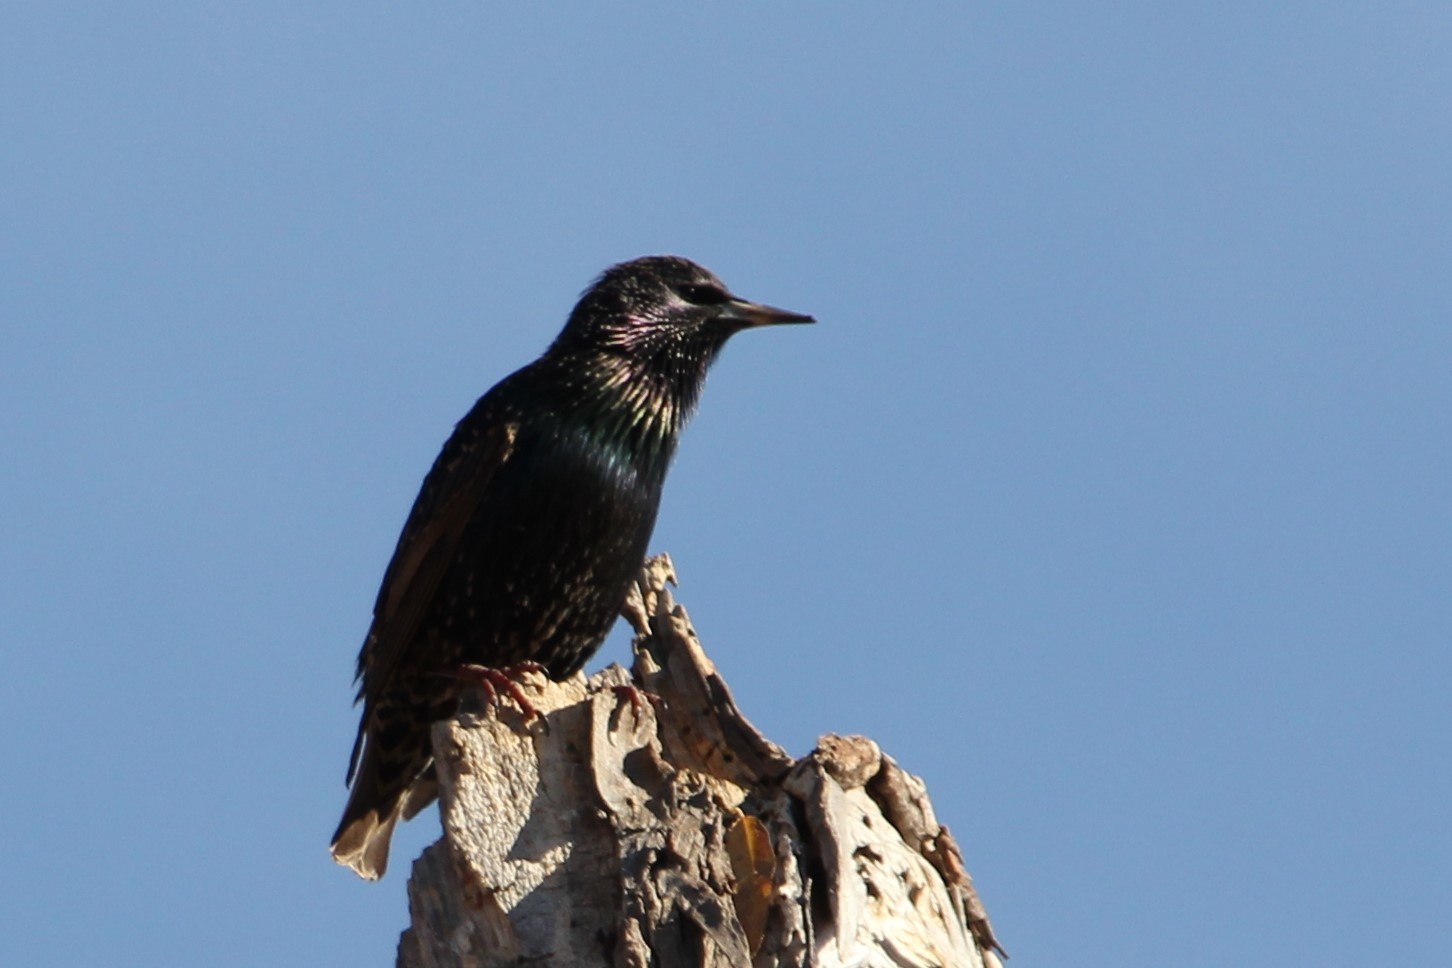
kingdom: Animalia
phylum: Chordata
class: Aves
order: Passeriformes
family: Sturnidae
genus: Sturnus
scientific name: Sturnus vulgaris
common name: Common starling
